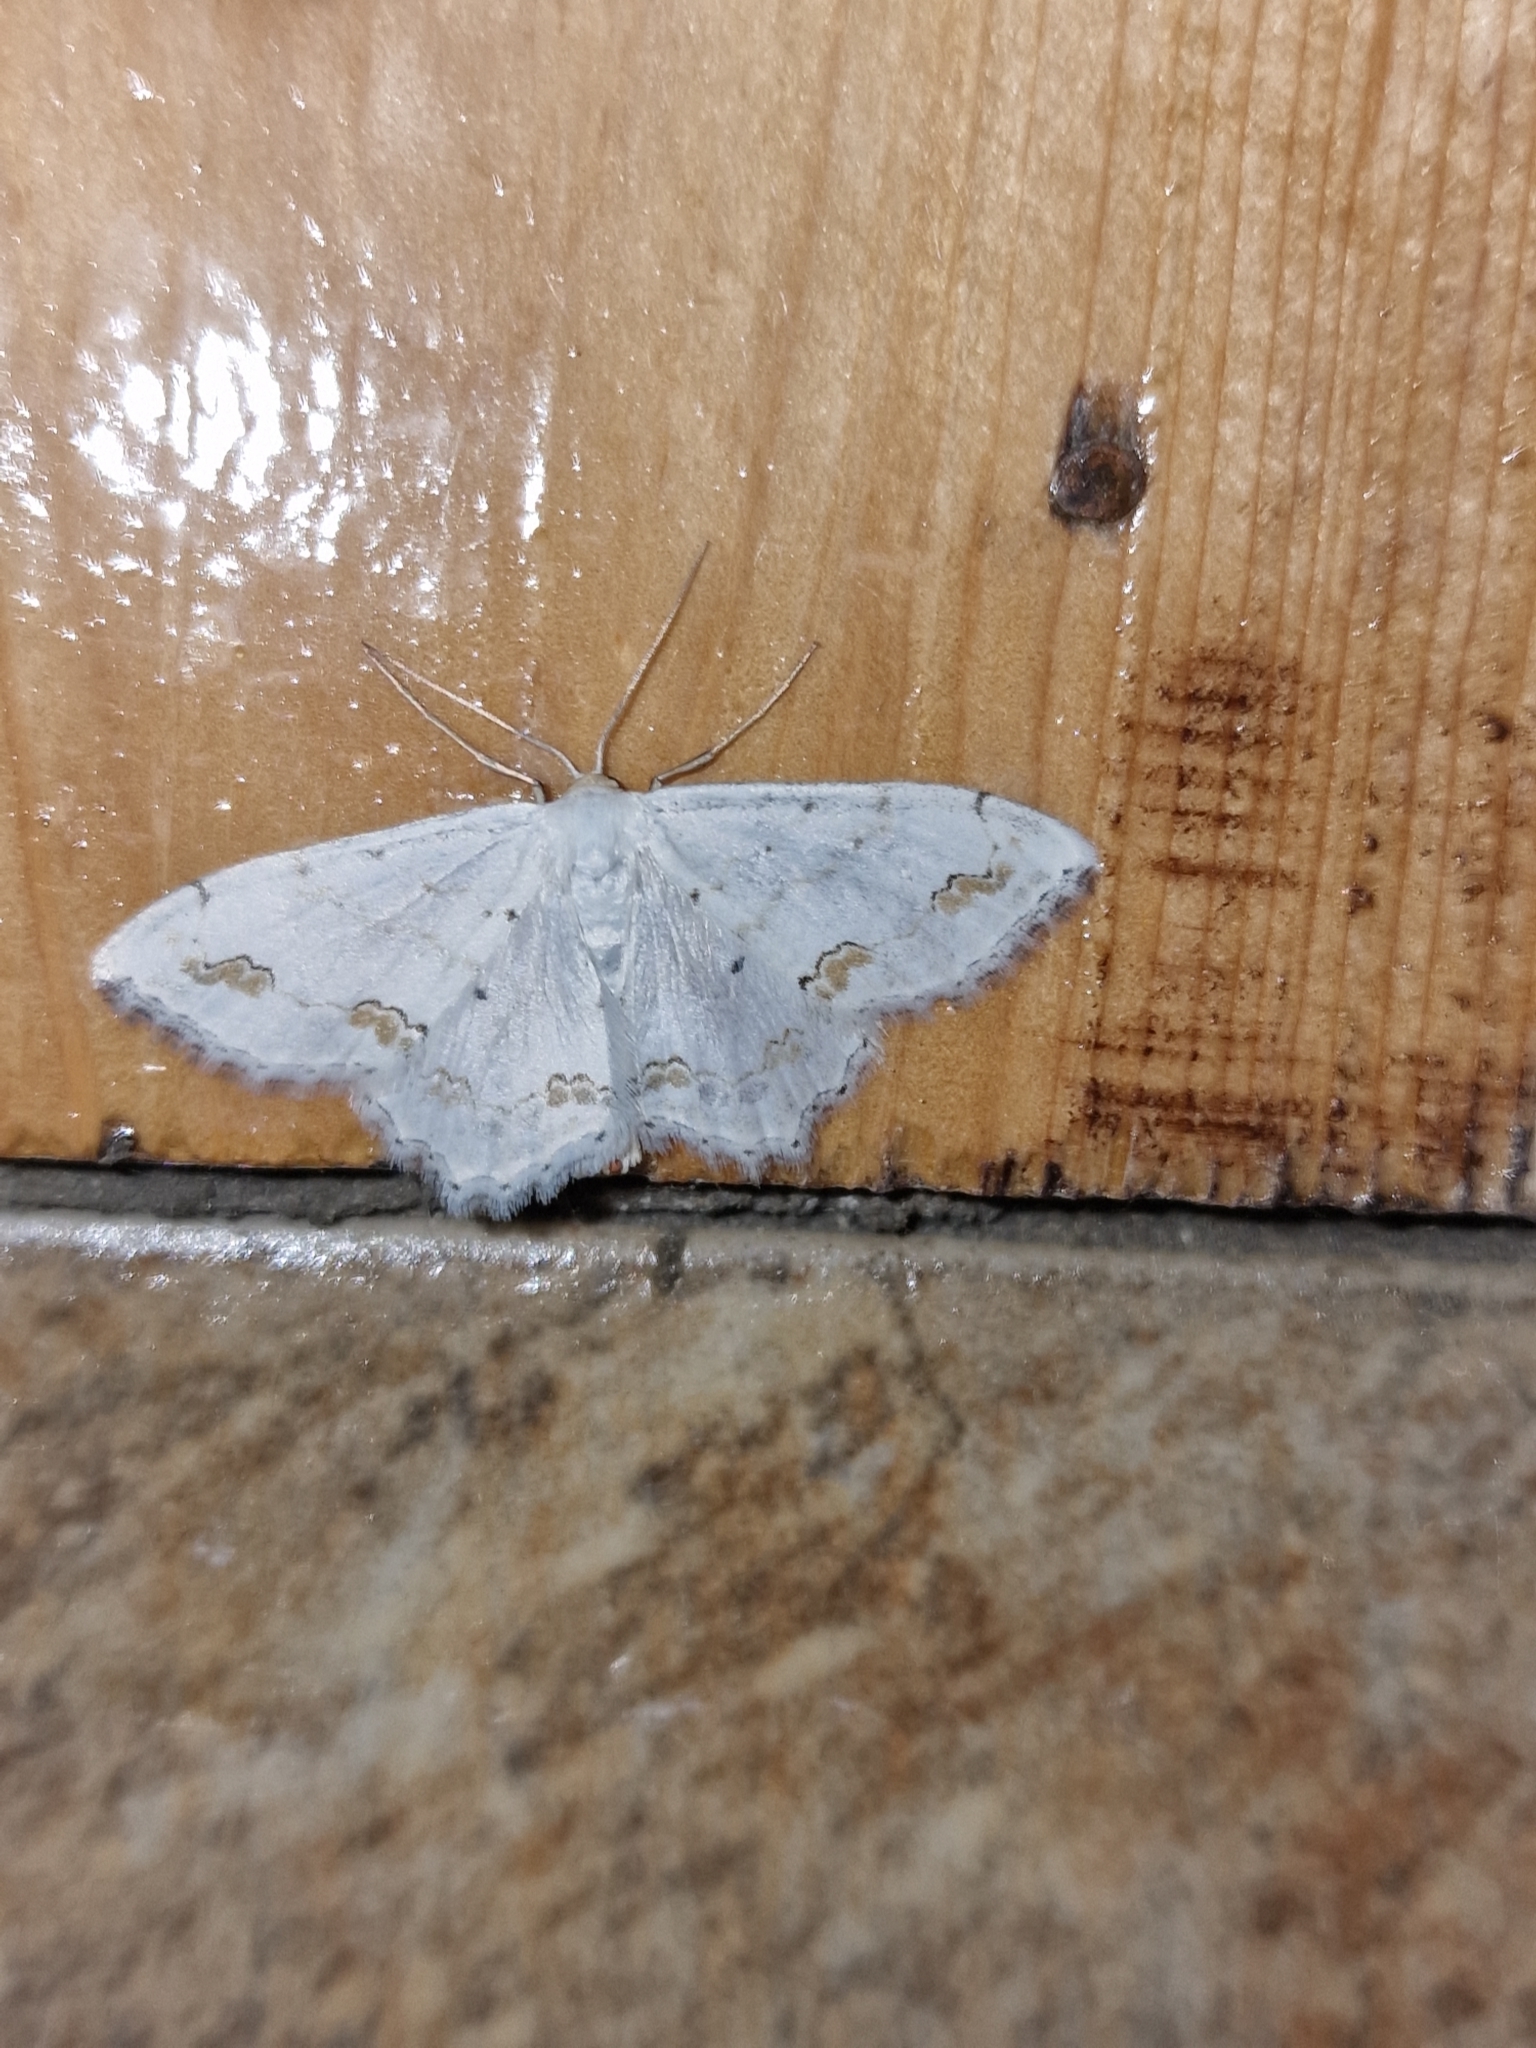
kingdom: Animalia
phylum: Arthropoda
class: Insecta
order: Lepidoptera
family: Geometridae
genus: Scopula
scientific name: Scopula ornata
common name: Lace border
